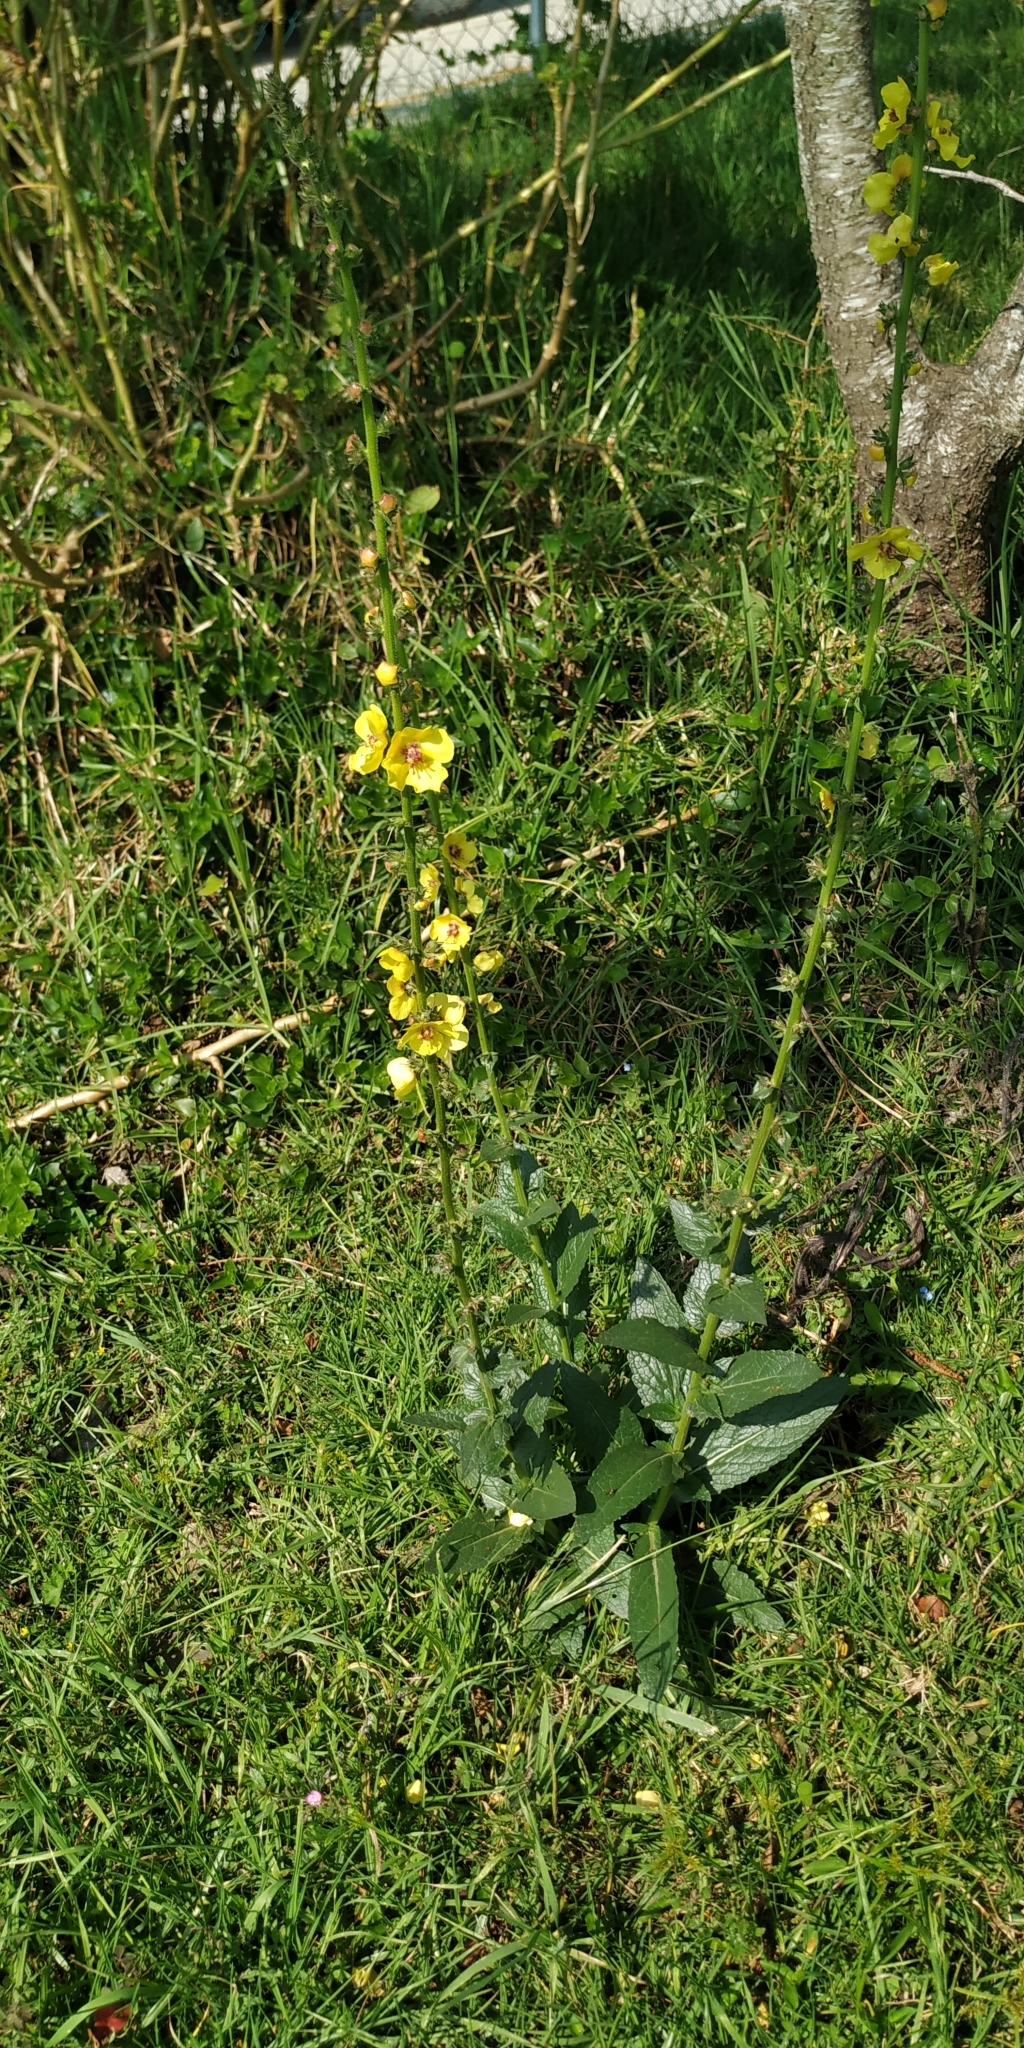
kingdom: Plantae
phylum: Tracheophyta
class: Magnoliopsida
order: Lamiales
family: Scrophulariaceae
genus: Verbascum
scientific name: Verbascum virgatum
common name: Twiggy mullein
